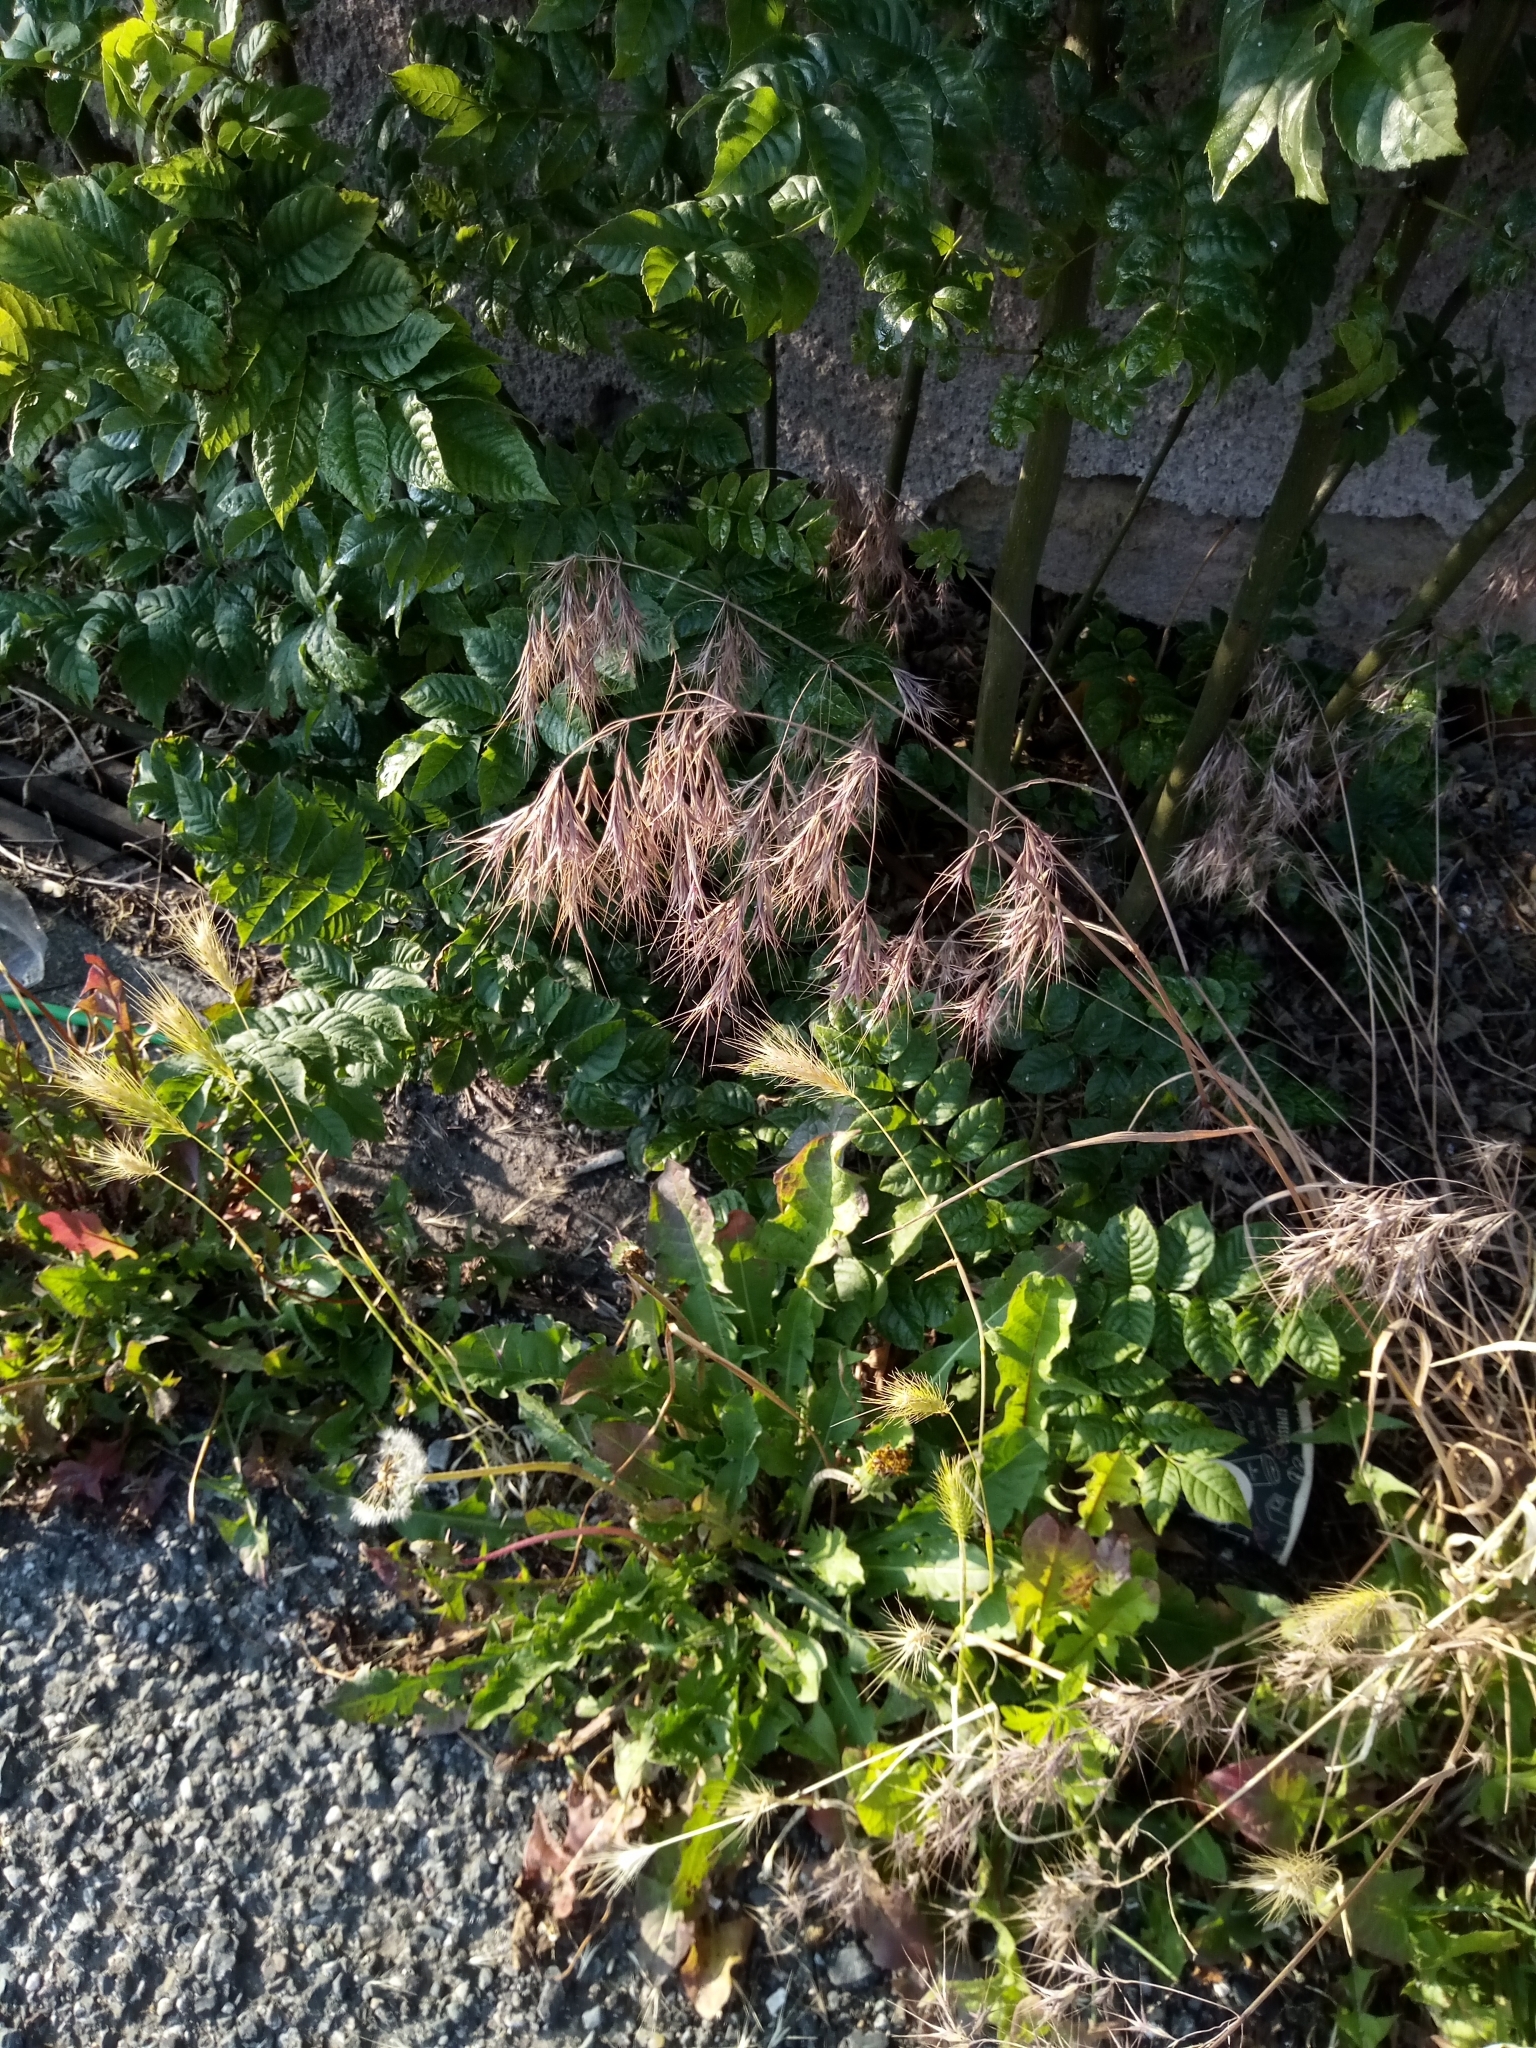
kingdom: Plantae
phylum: Tracheophyta
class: Liliopsida
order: Poales
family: Poaceae
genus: Bromus
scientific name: Bromus tectorum
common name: Cheatgrass
